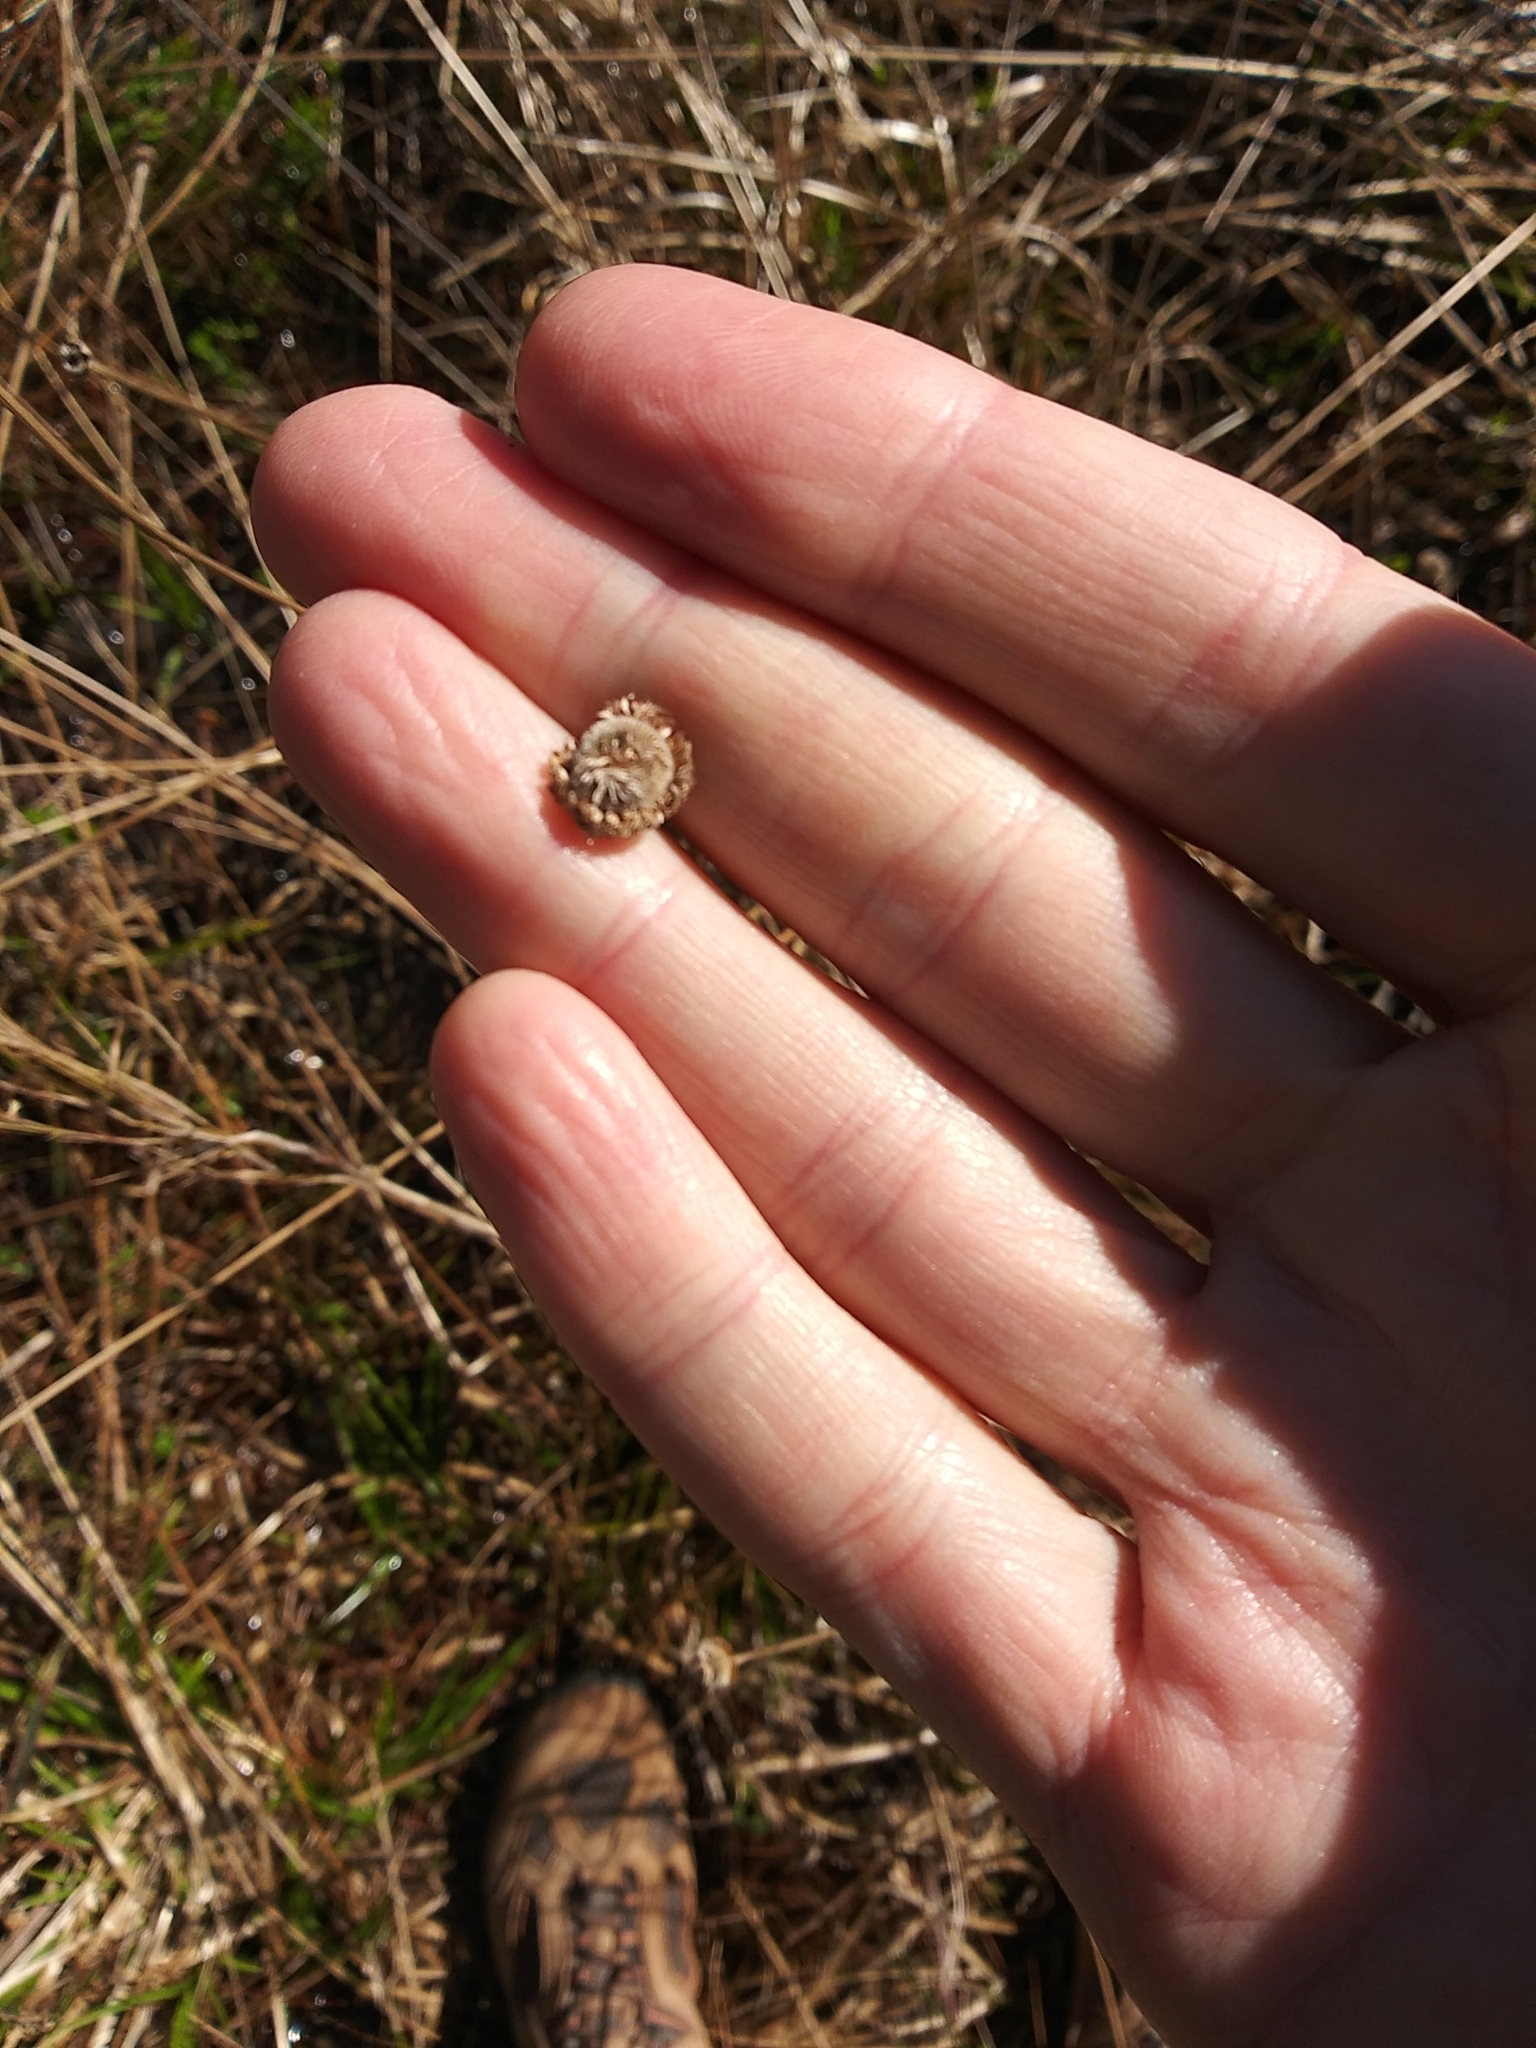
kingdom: Plantae
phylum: Tracheophyta
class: Liliopsida
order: Poales
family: Eriocaulaceae
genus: Eriocaulon
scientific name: Eriocaulon decangulare
